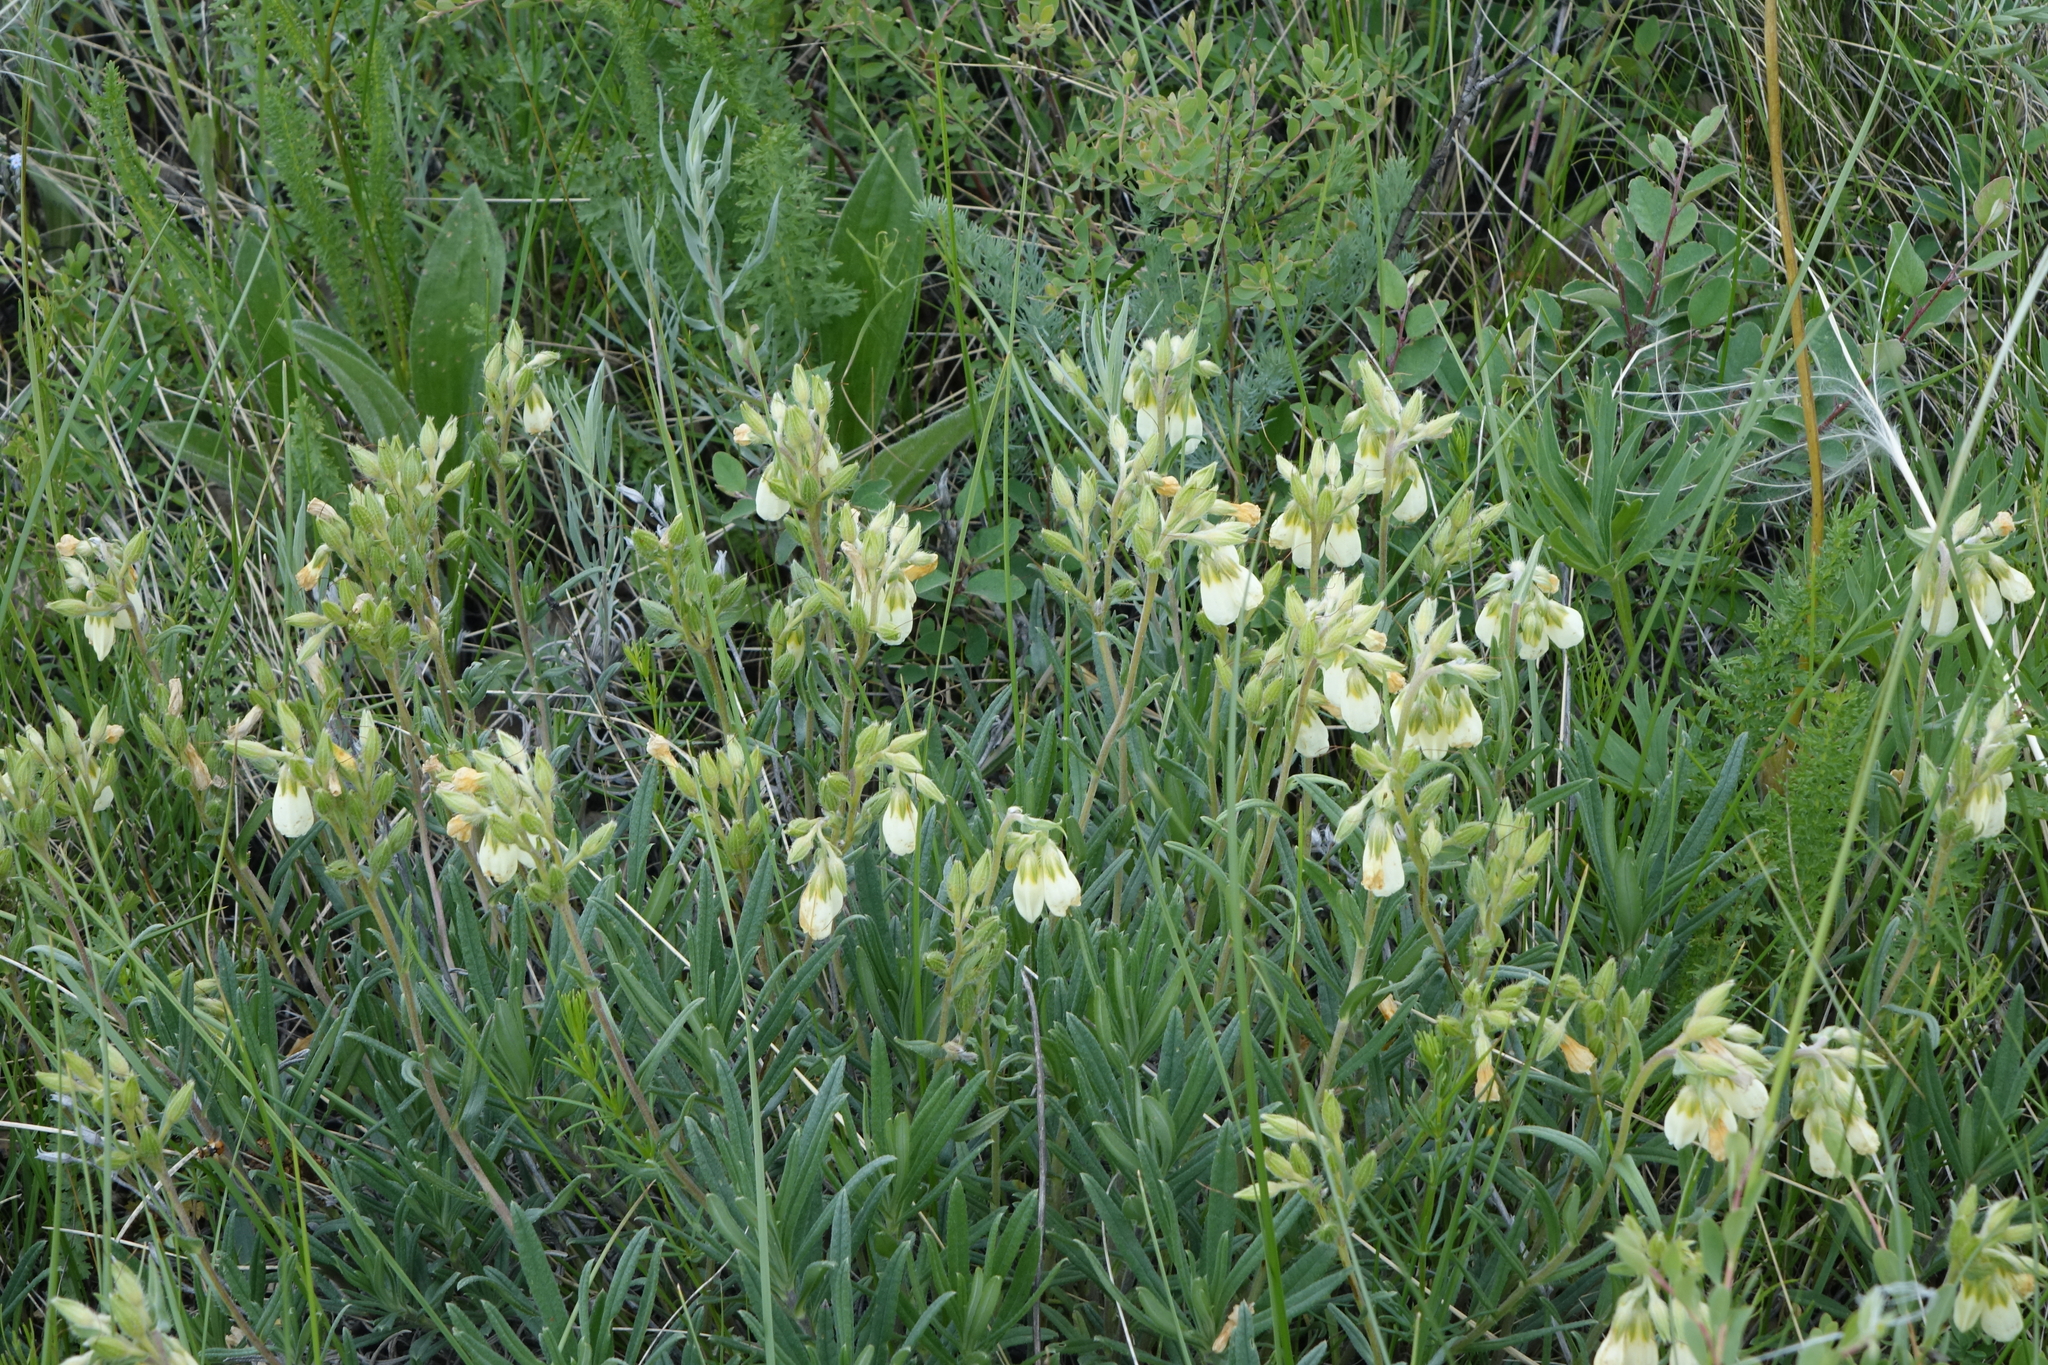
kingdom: Plantae
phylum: Tracheophyta
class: Magnoliopsida
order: Boraginales
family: Boraginaceae
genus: Onosma
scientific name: Onosma simplicissima
